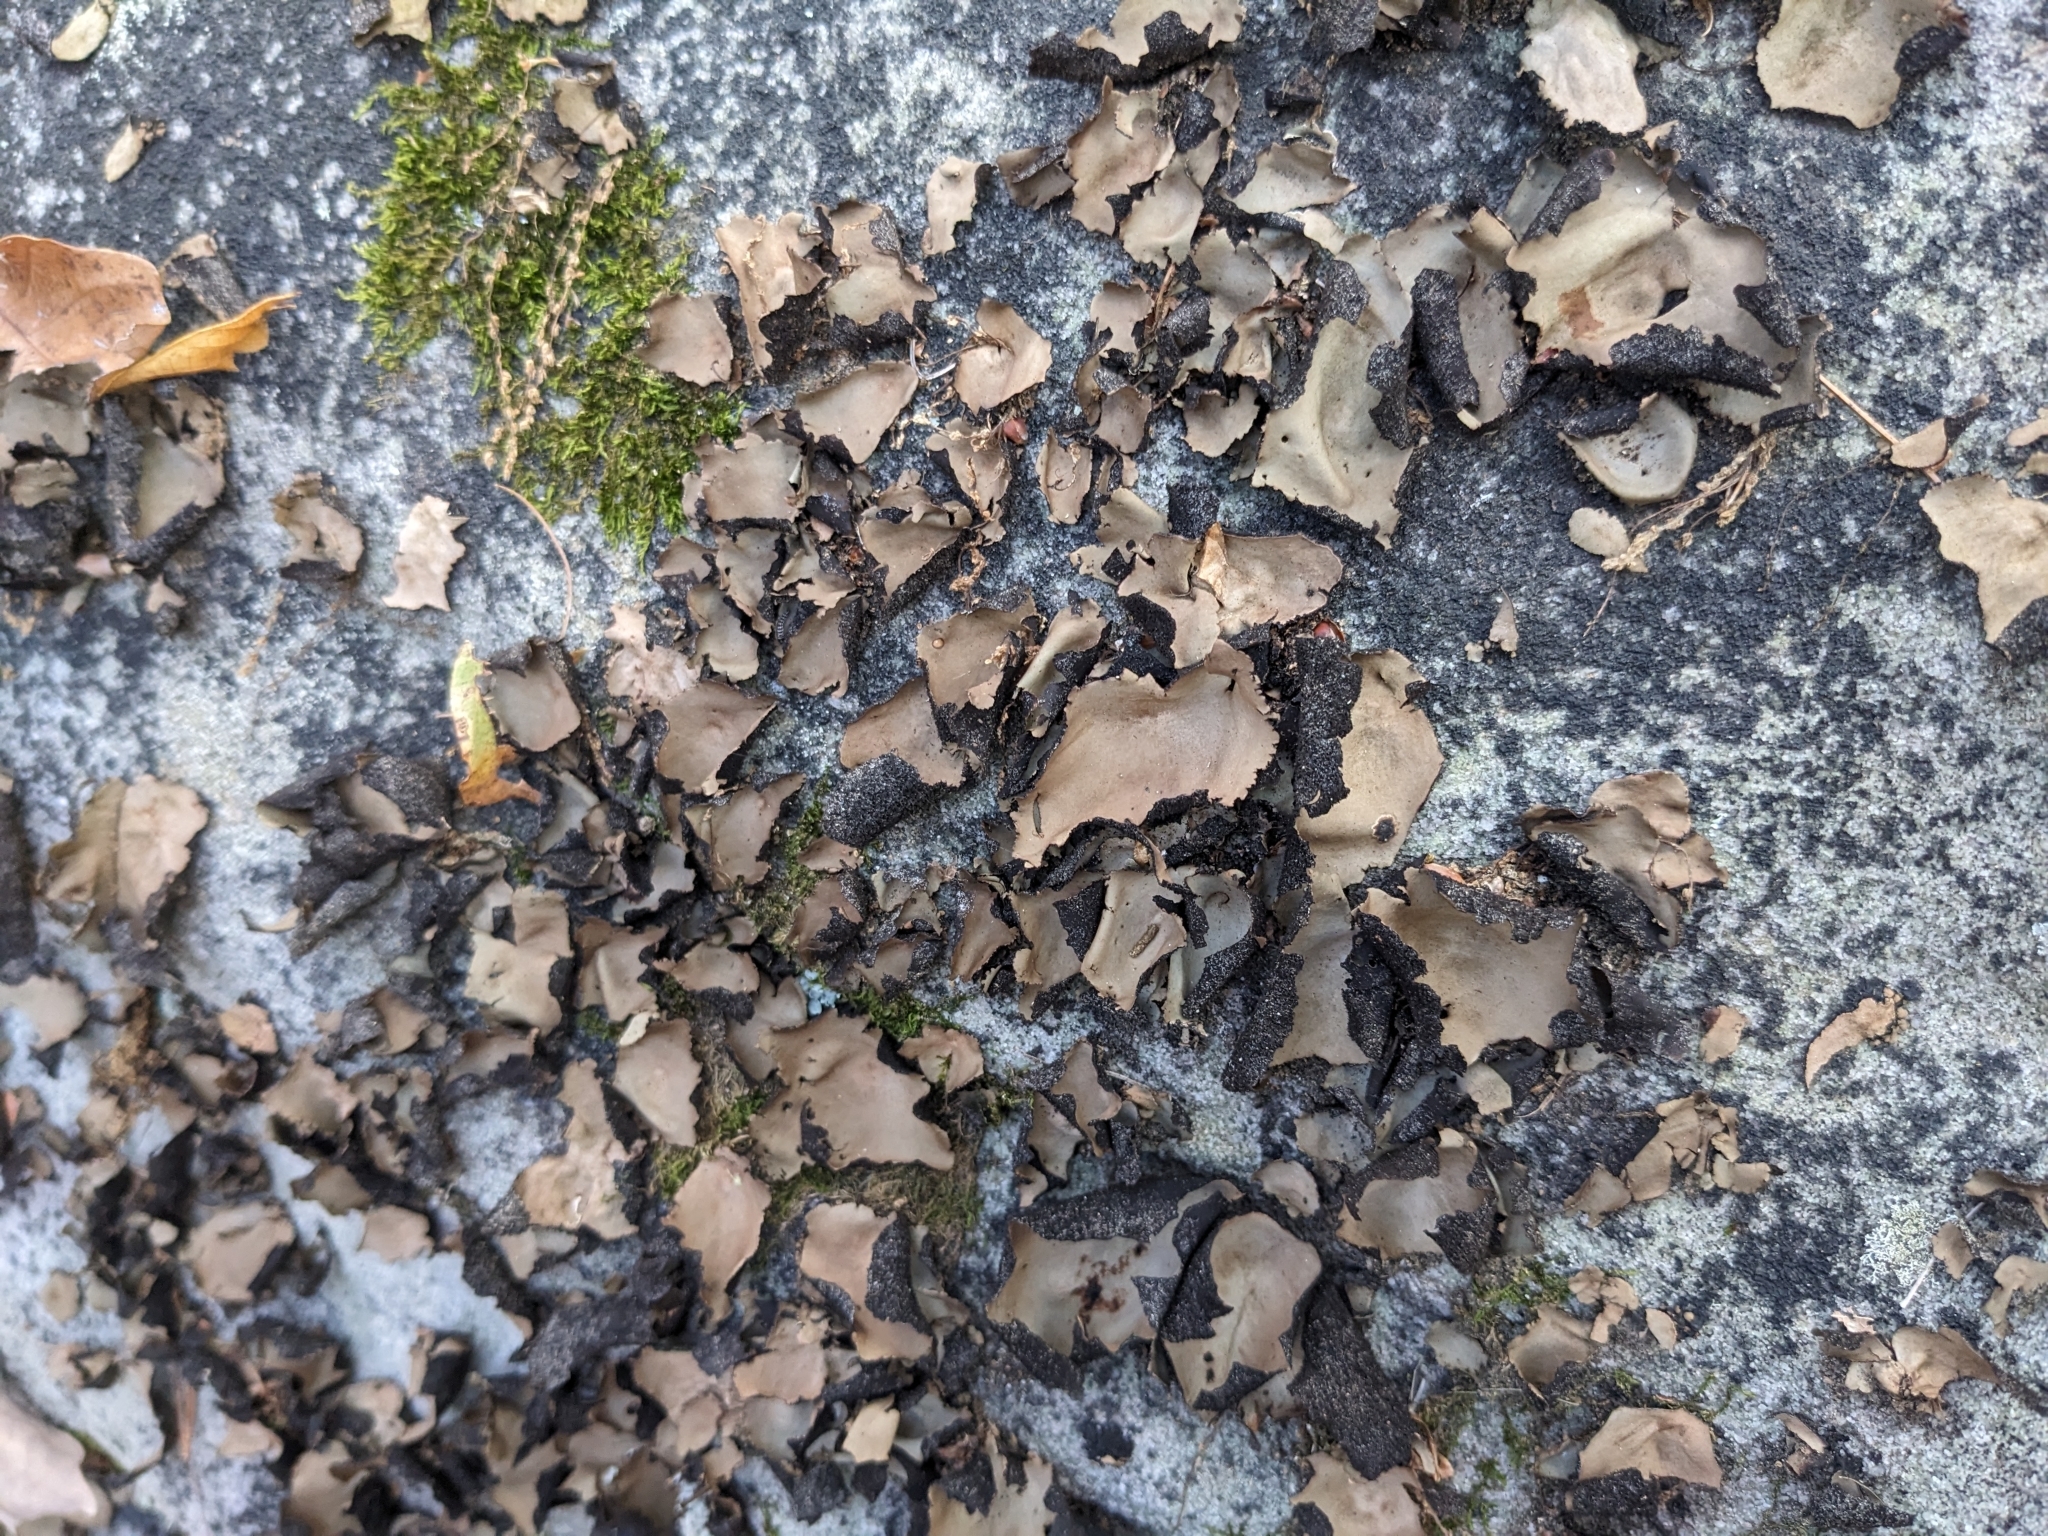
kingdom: Fungi
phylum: Ascomycota
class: Lecanoromycetes
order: Umbilicariales
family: Umbilicariaceae
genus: Umbilicaria
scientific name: Umbilicaria mammulata
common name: Smooth rock tripe
